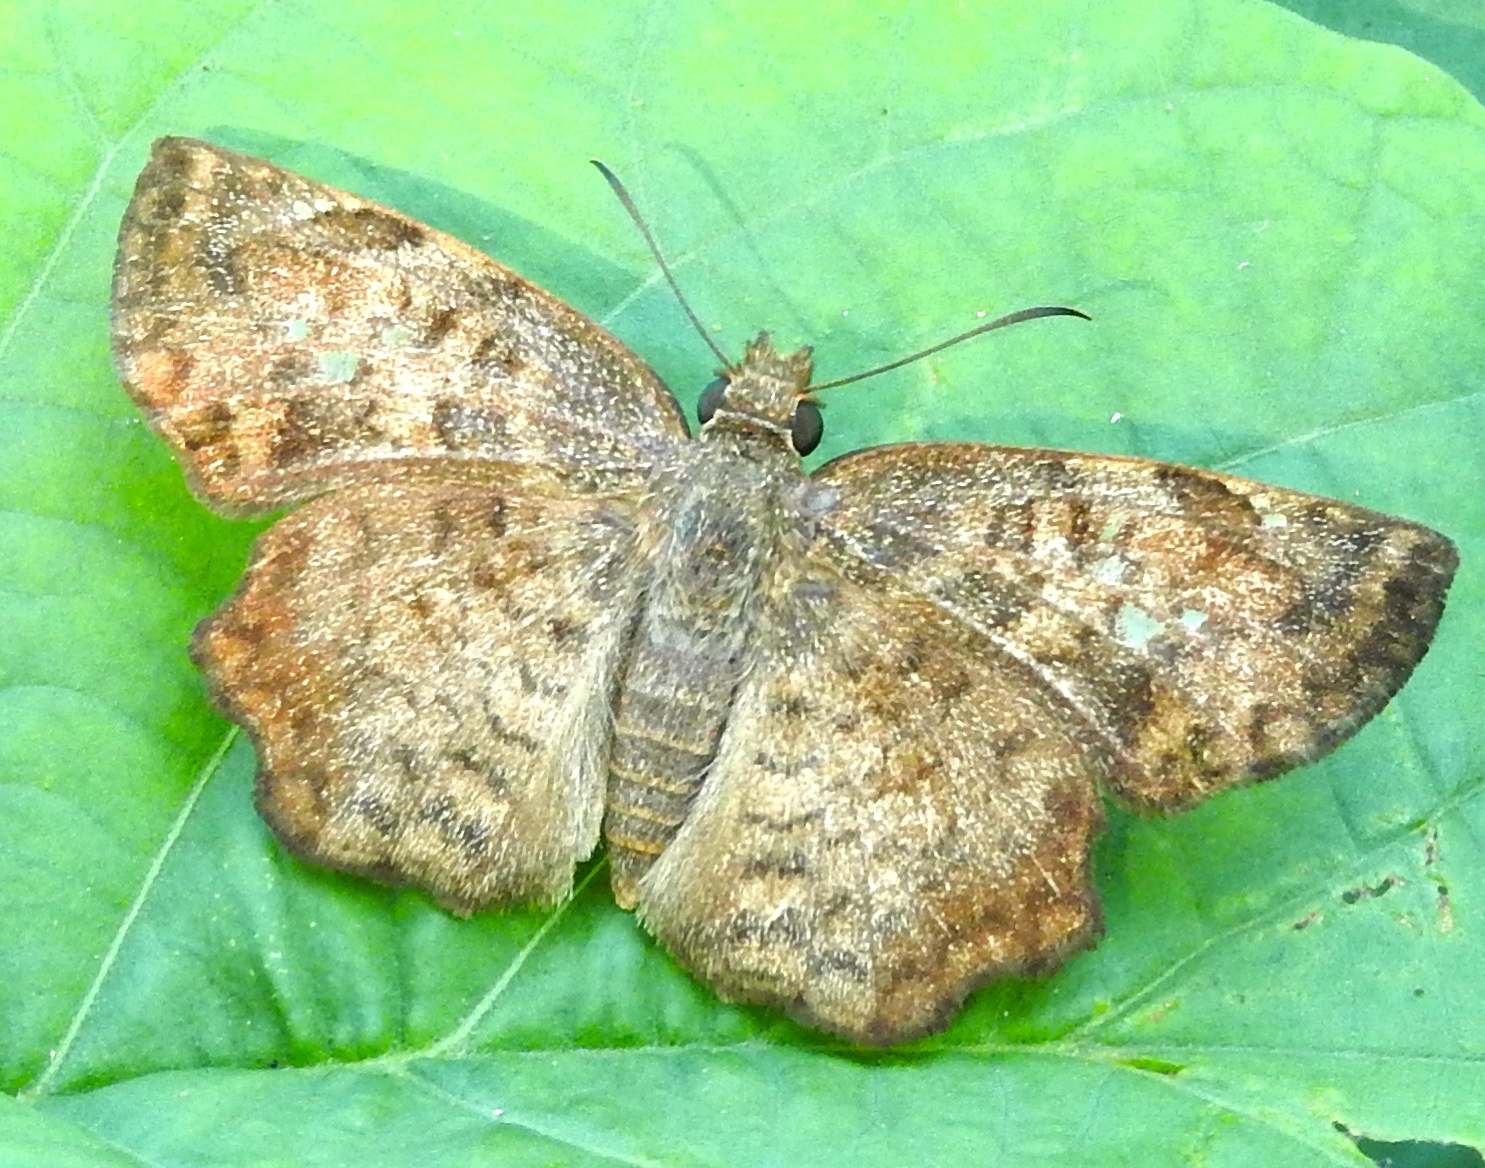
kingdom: Animalia
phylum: Arthropoda
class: Insecta
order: Lepidoptera
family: Hesperiidae
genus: Antigonus
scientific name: Antigonus erosus
